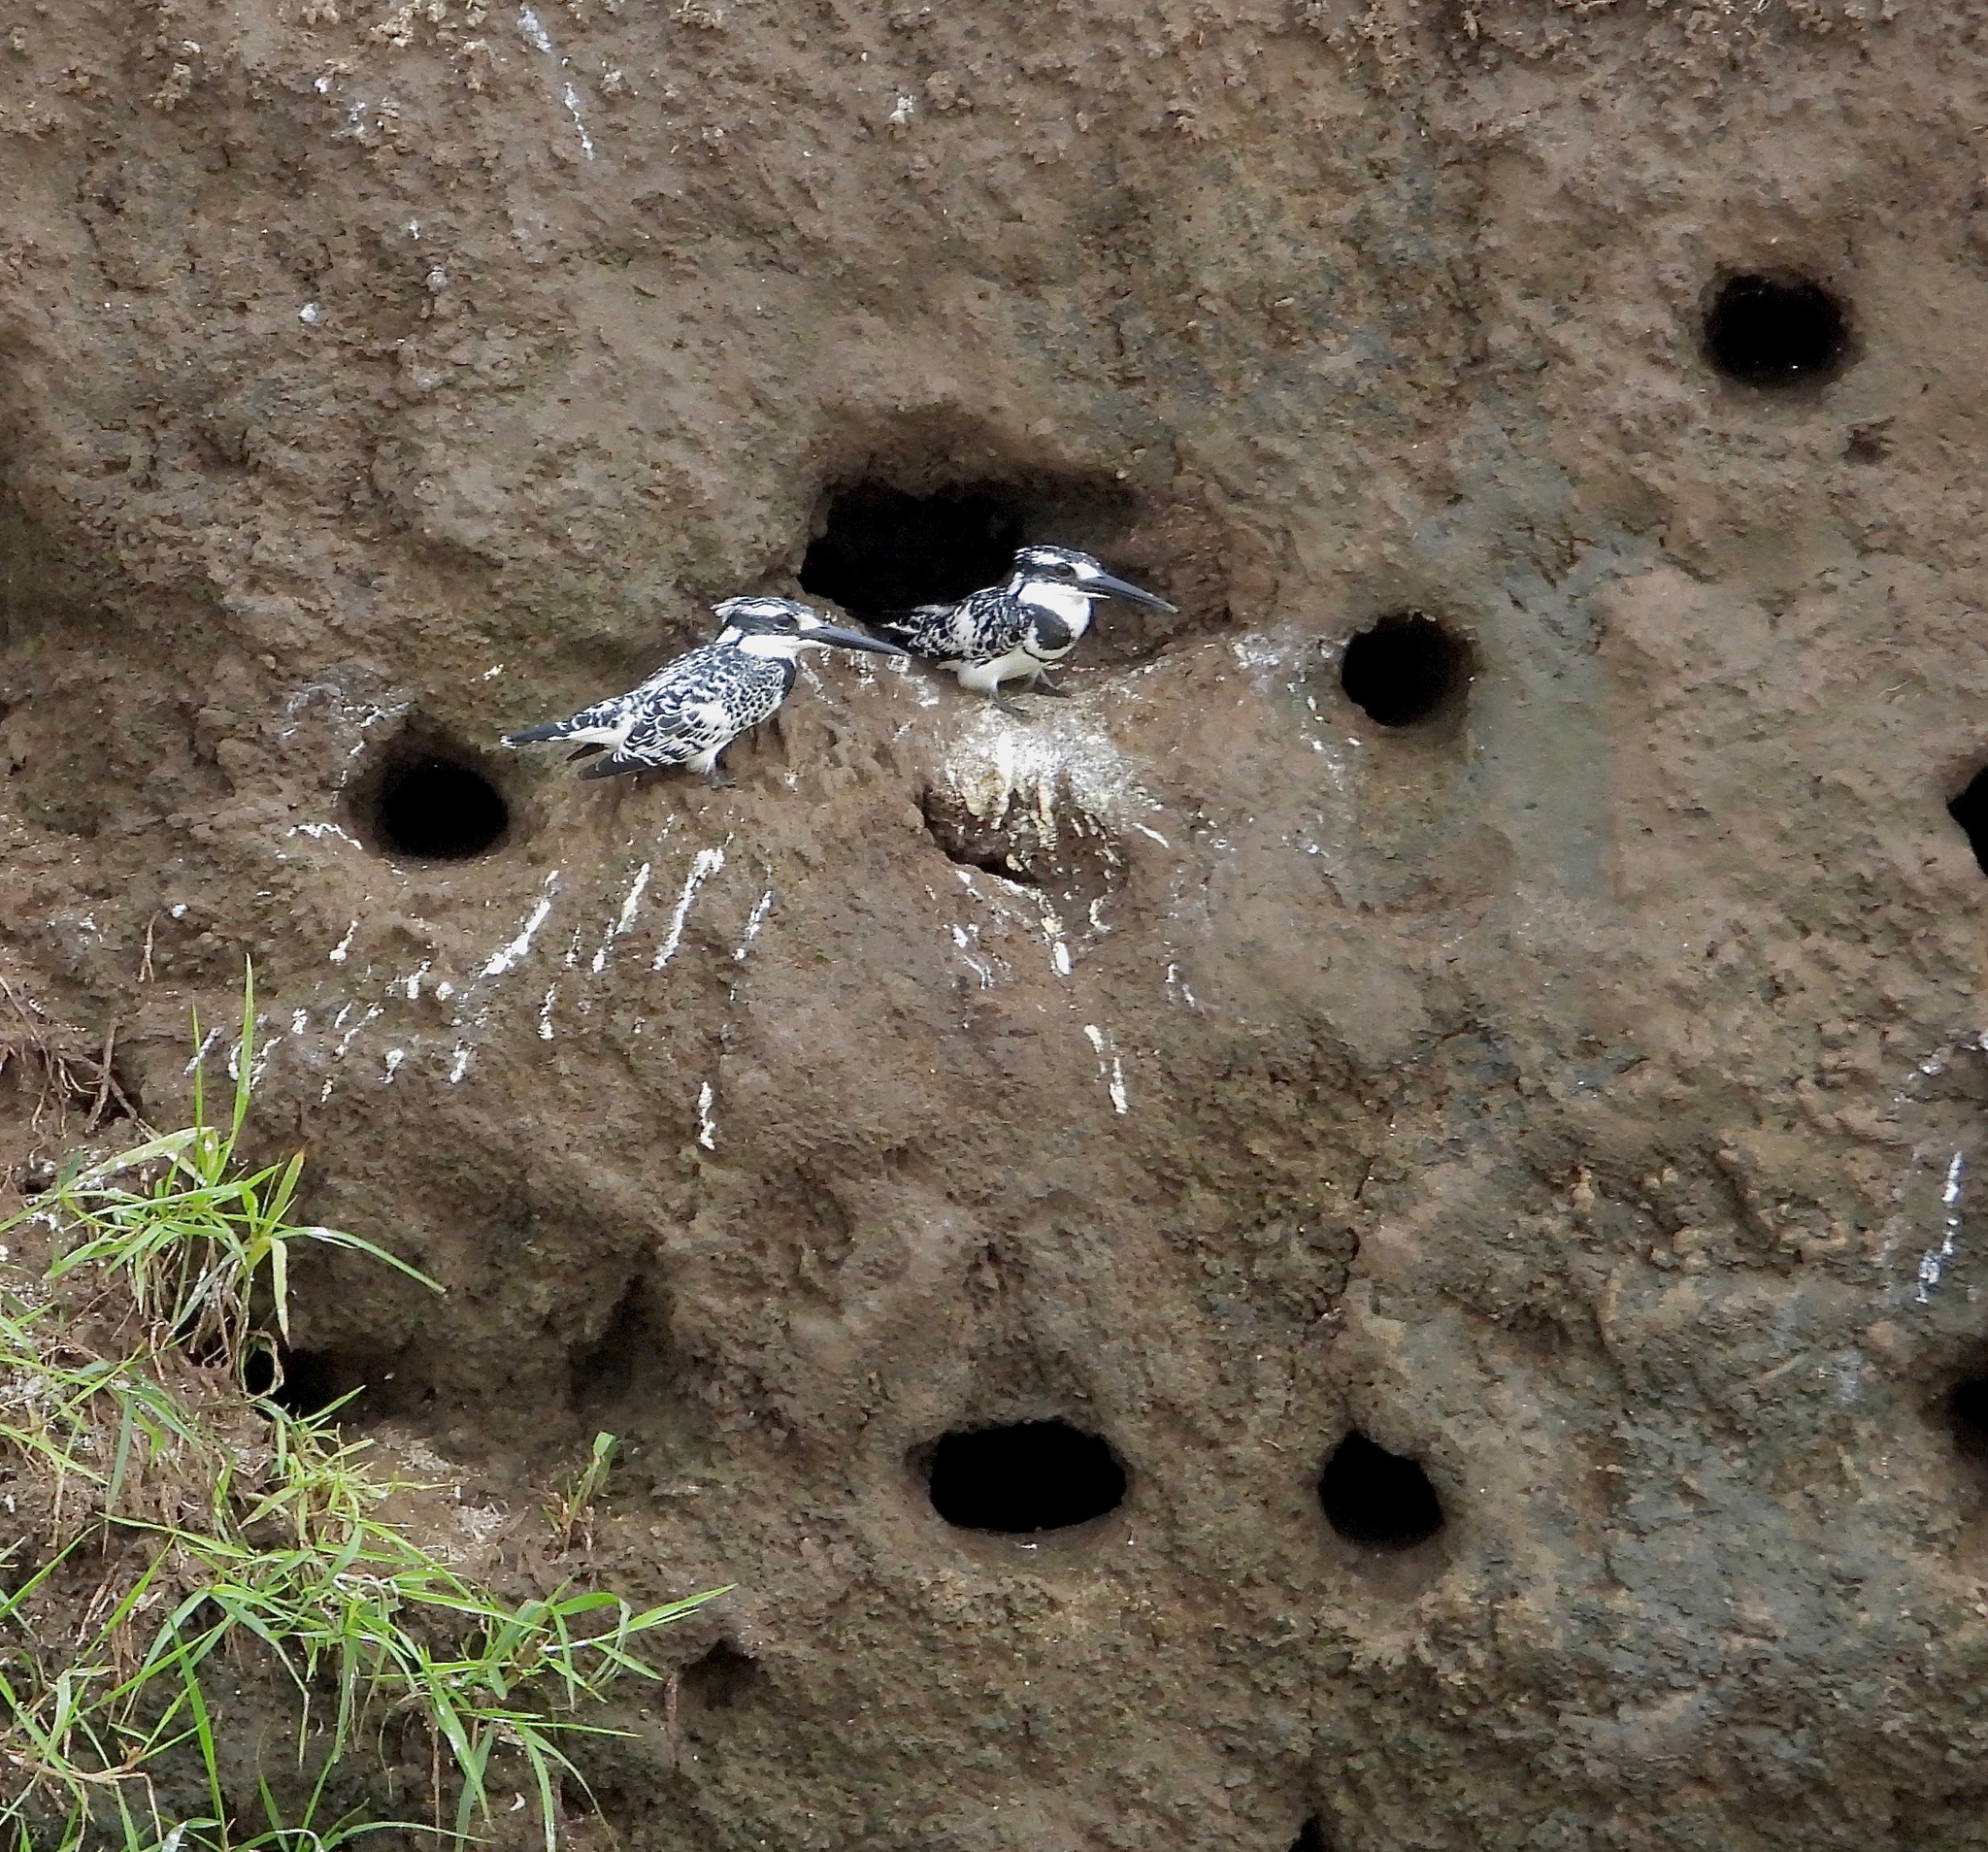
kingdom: Animalia
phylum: Chordata
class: Aves
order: Coraciiformes
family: Alcedinidae
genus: Ceryle
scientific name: Ceryle rudis
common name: Pied kingfisher
